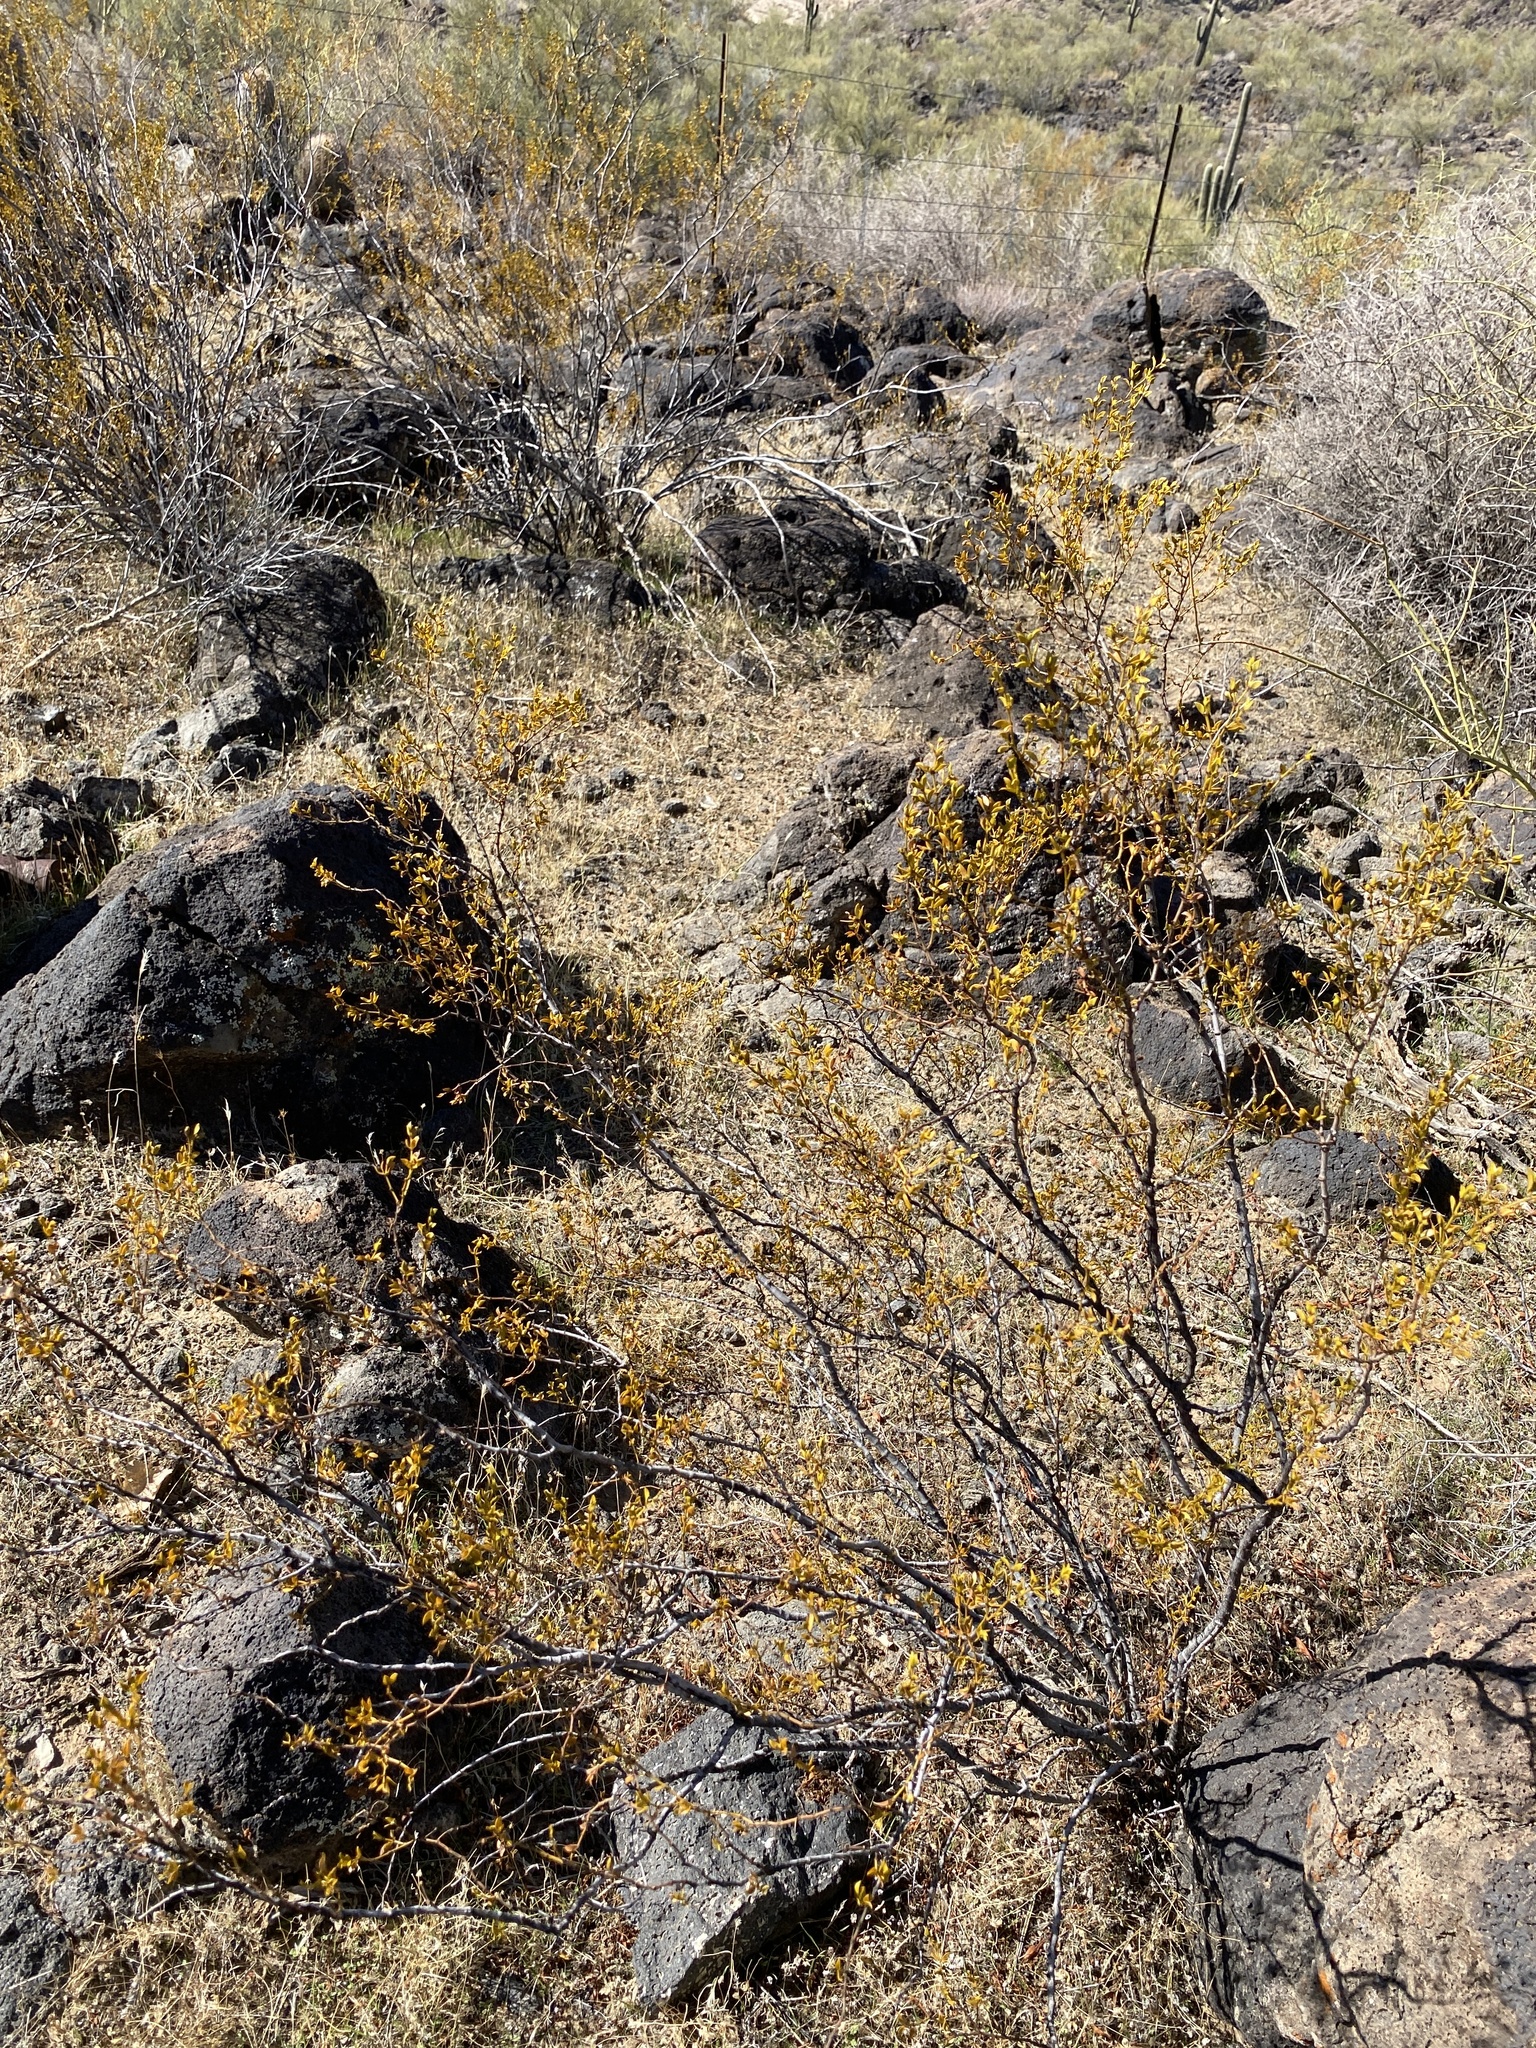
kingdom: Plantae
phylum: Tracheophyta
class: Magnoliopsida
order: Zygophyllales
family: Zygophyllaceae
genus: Larrea
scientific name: Larrea tridentata
